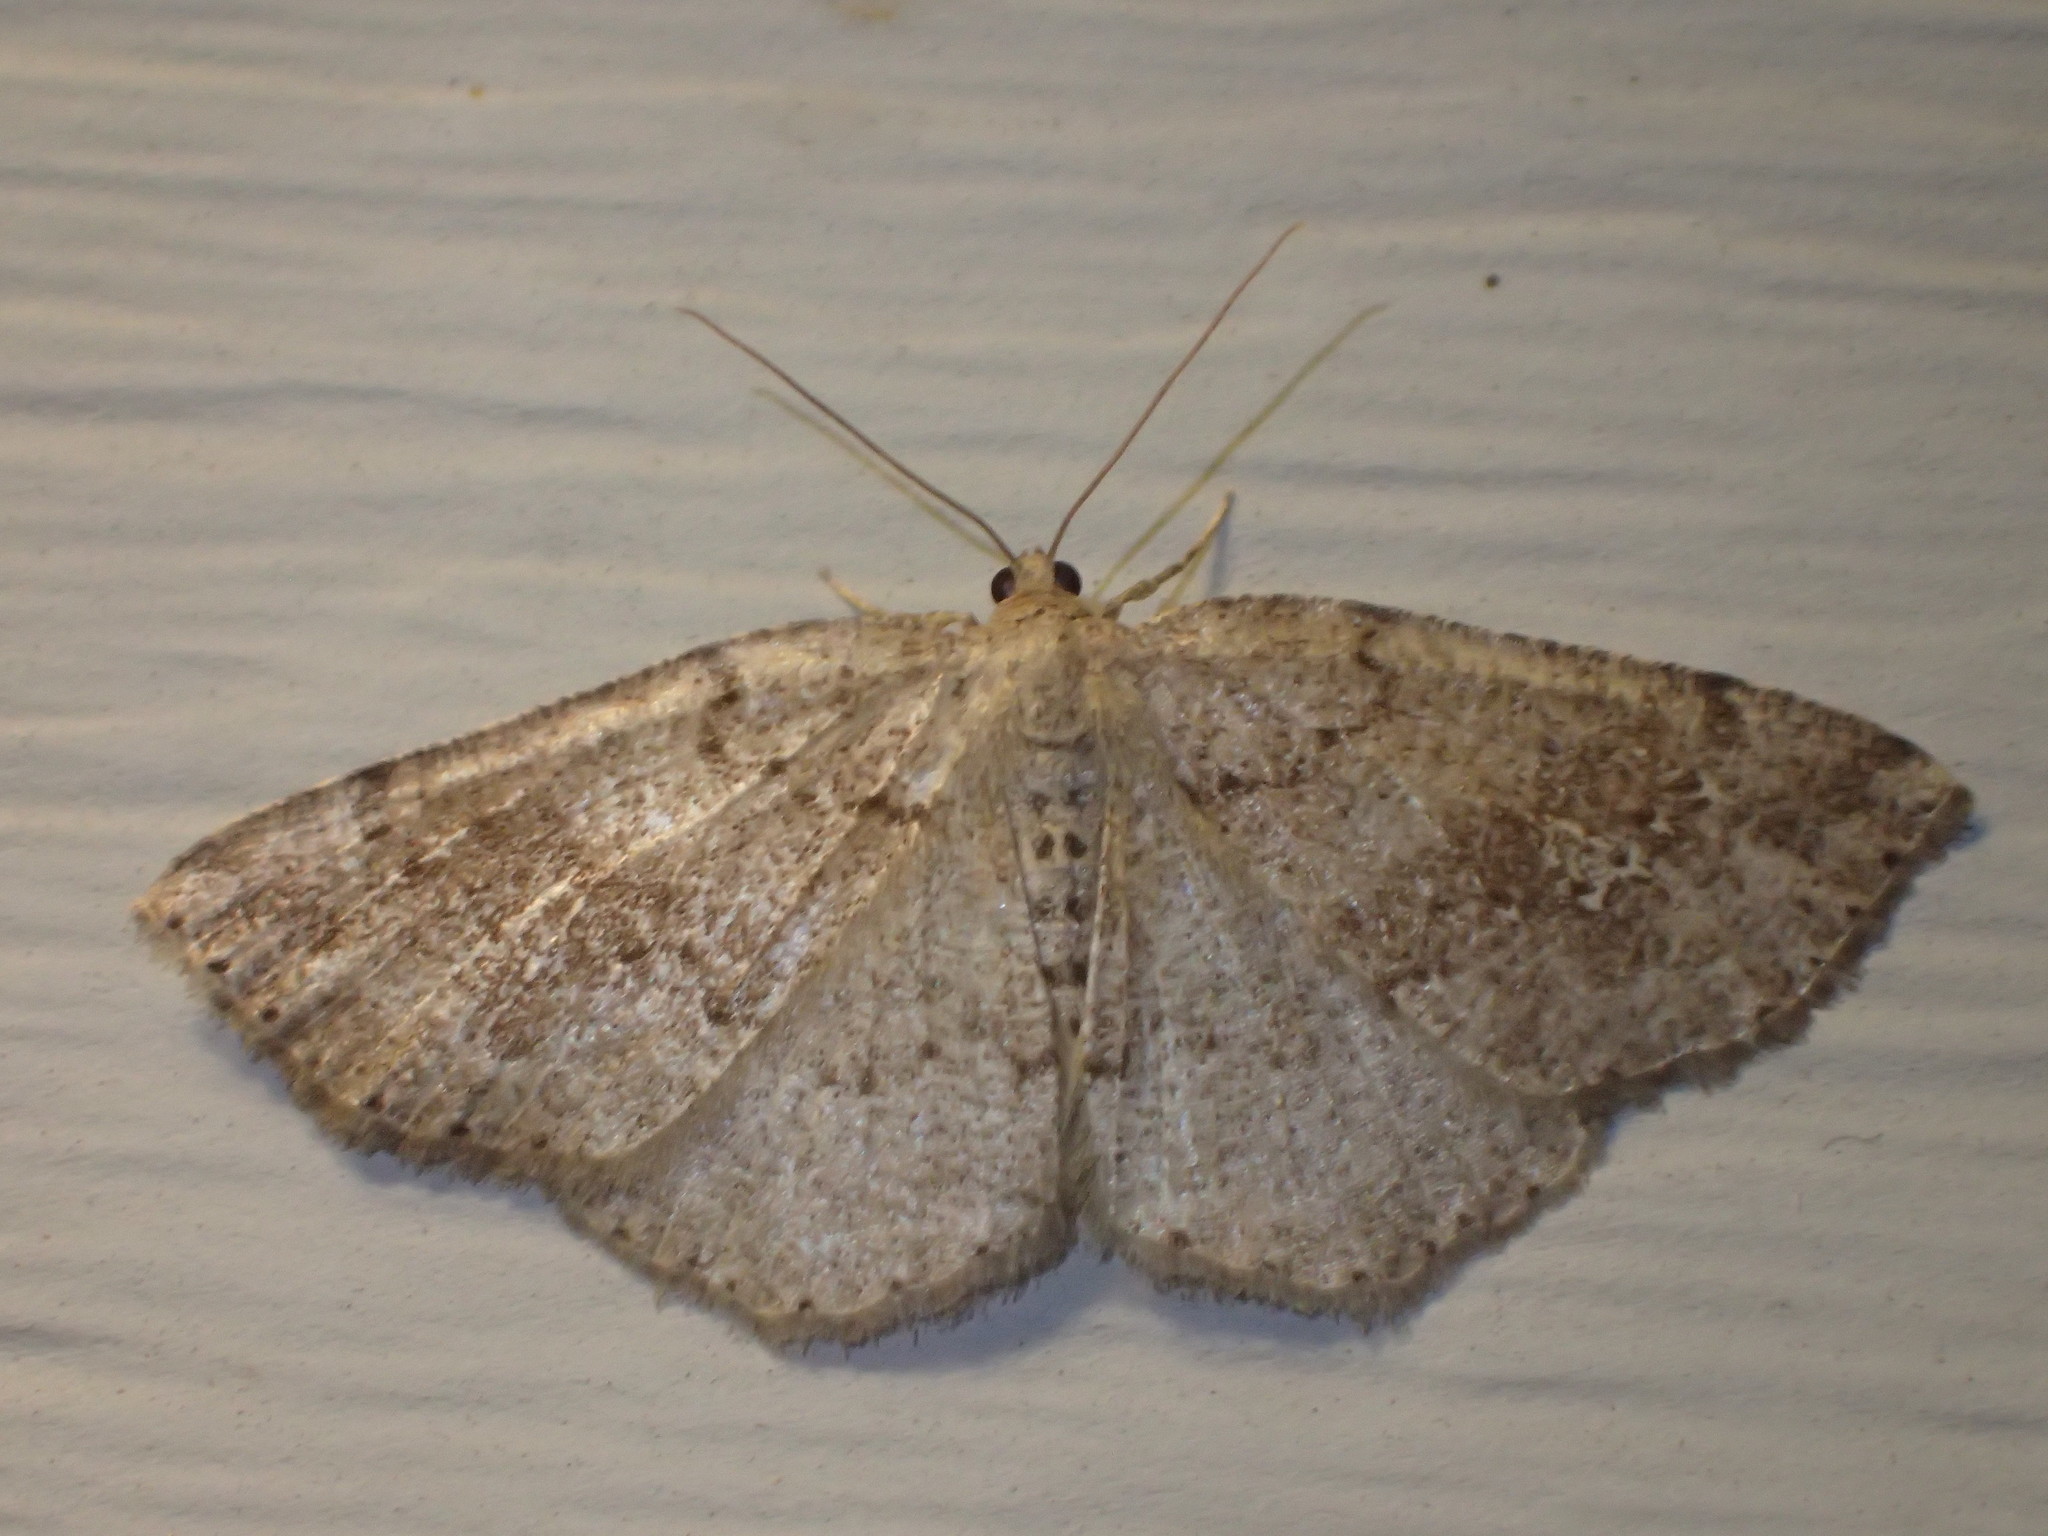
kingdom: Animalia
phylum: Arthropoda
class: Insecta
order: Lepidoptera
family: Geometridae
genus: Homochlodes
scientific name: Homochlodes fritillaria
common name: Pale homochlodes
